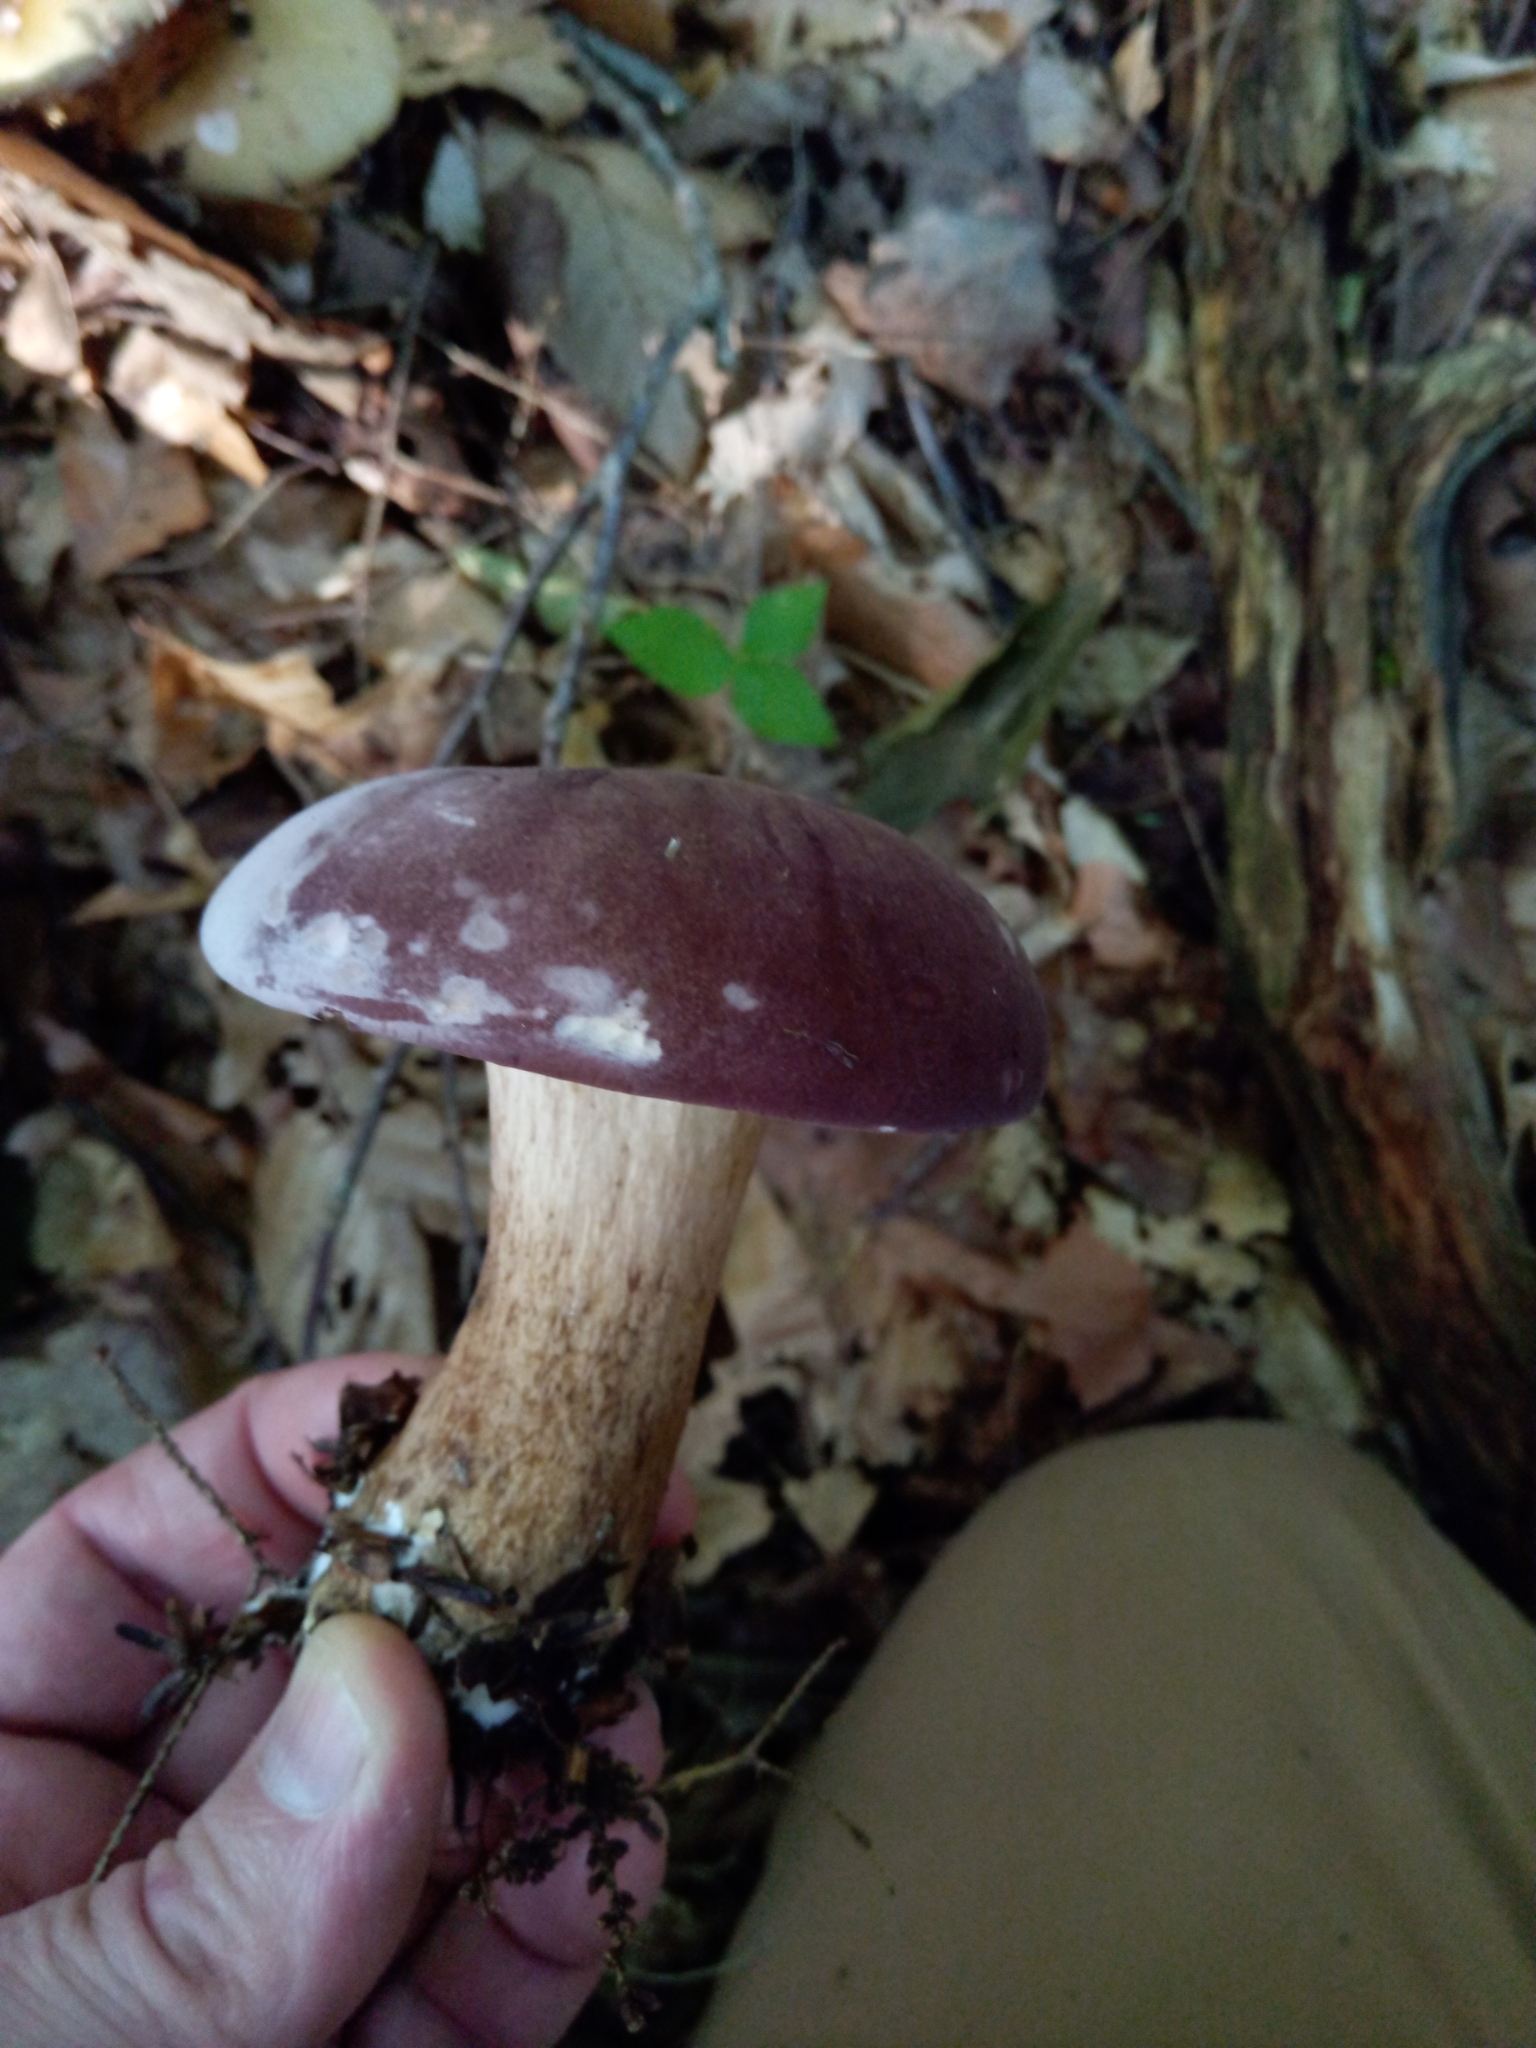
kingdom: Fungi
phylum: Basidiomycota
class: Agaricomycetes
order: Boletales
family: Boletaceae
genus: Tylopilus
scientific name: Tylopilus rubrobrunneus
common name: Reddish brown bitter bolete
